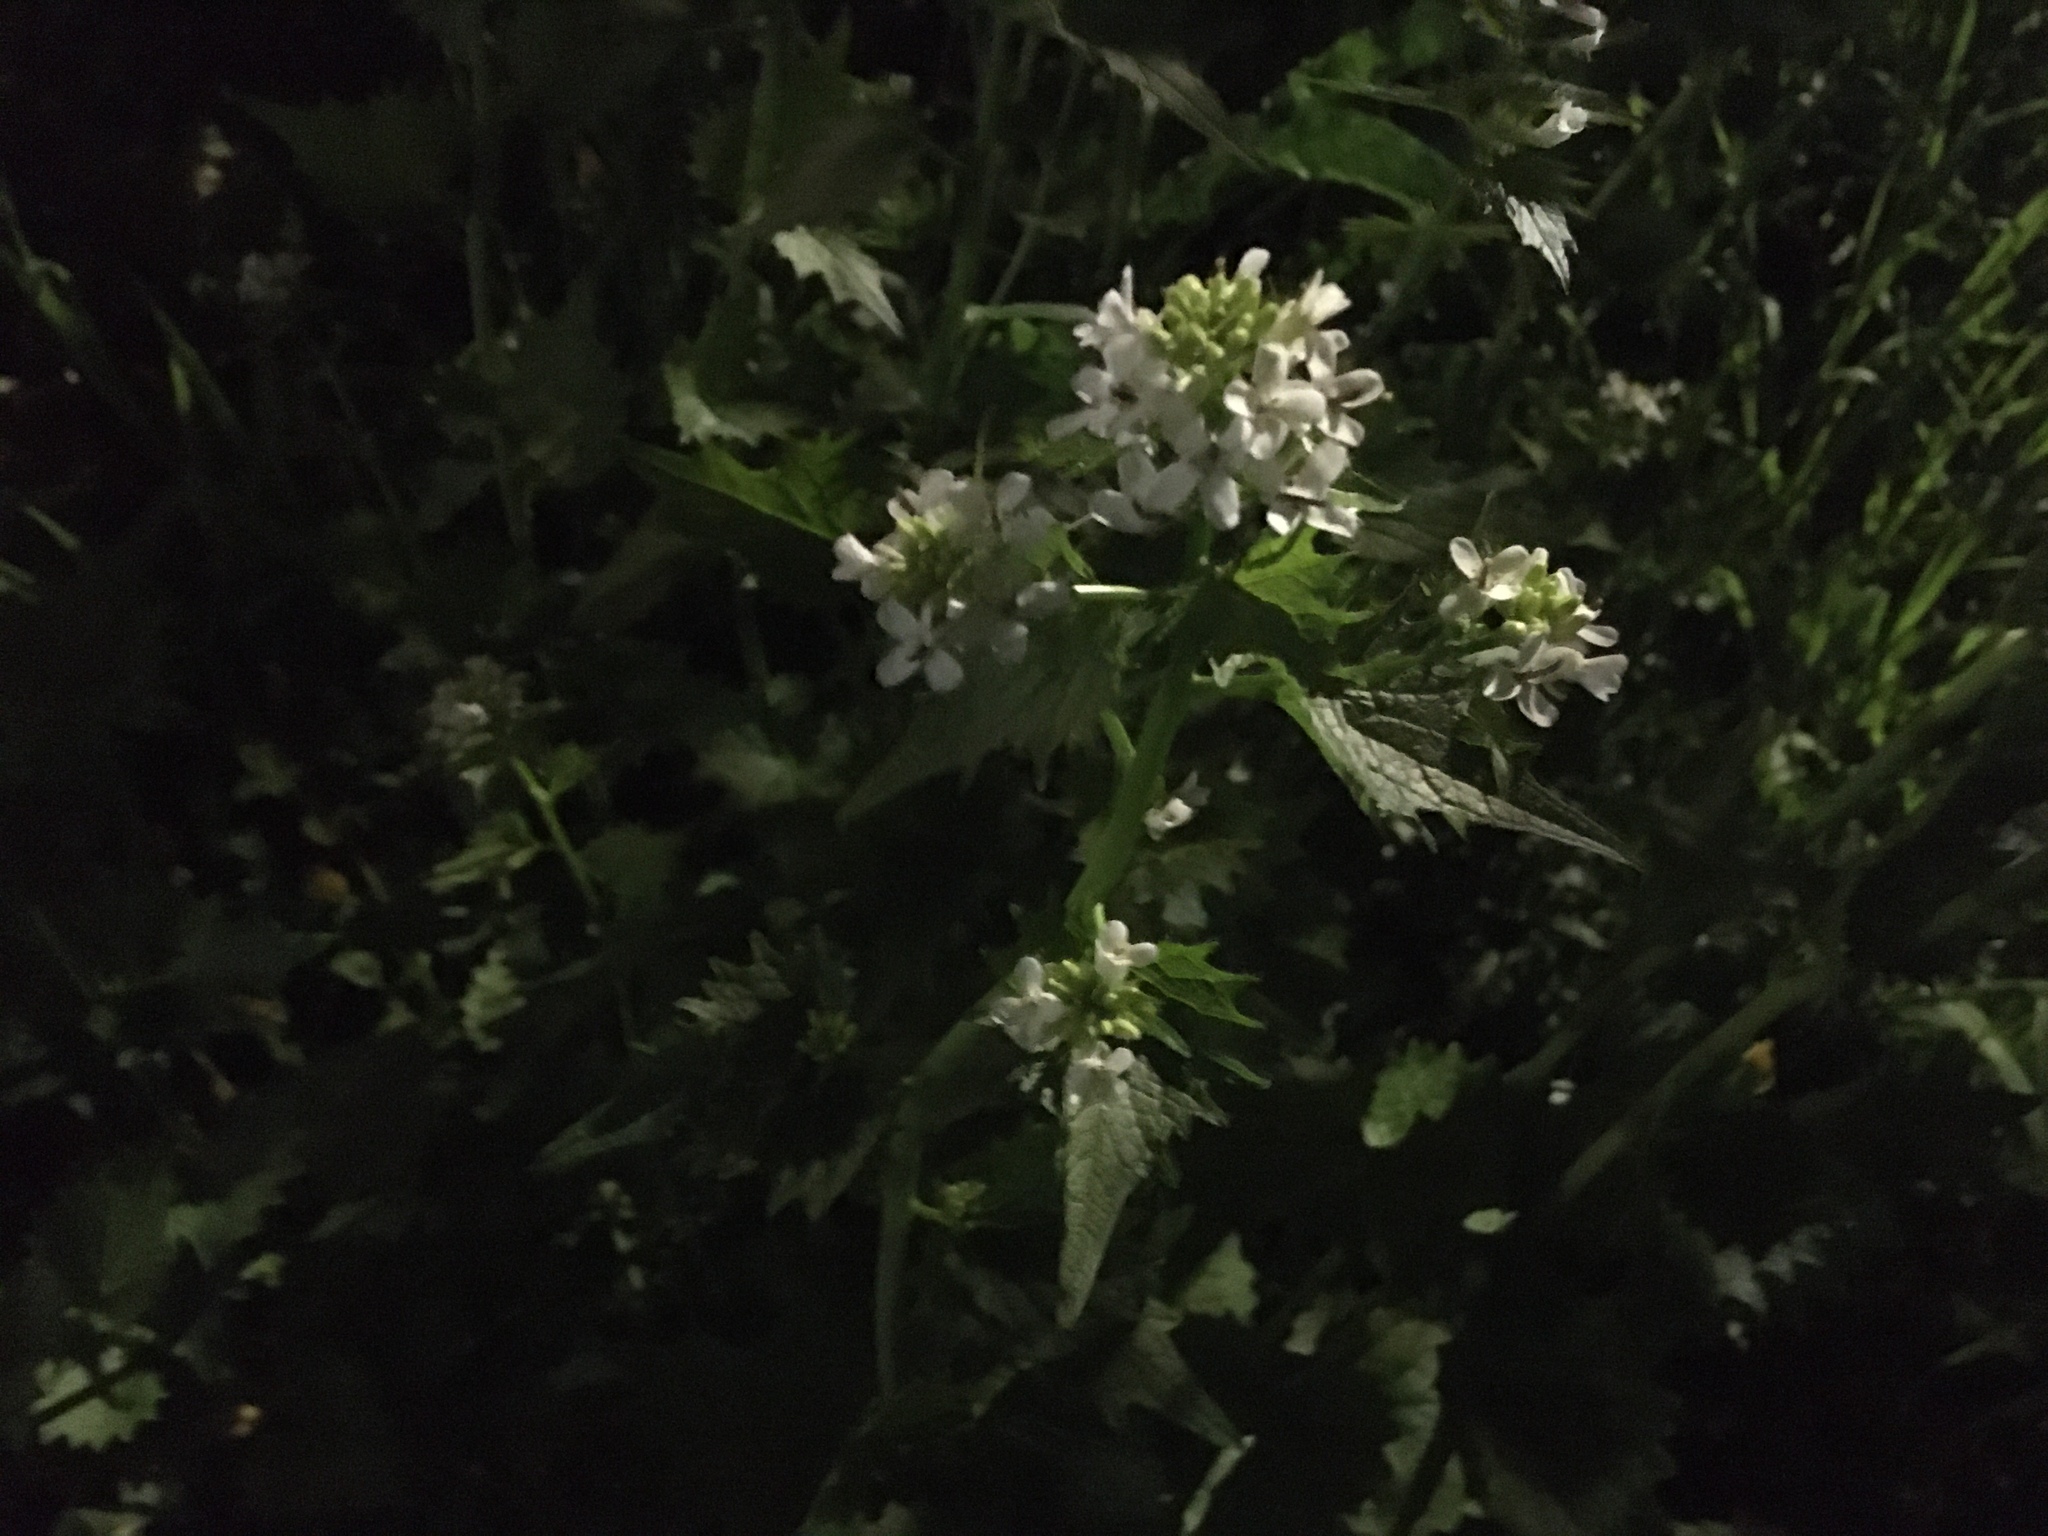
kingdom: Plantae
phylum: Tracheophyta
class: Magnoliopsida
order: Brassicales
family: Brassicaceae
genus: Alliaria
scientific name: Alliaria petiolata
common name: Garlic mustard
